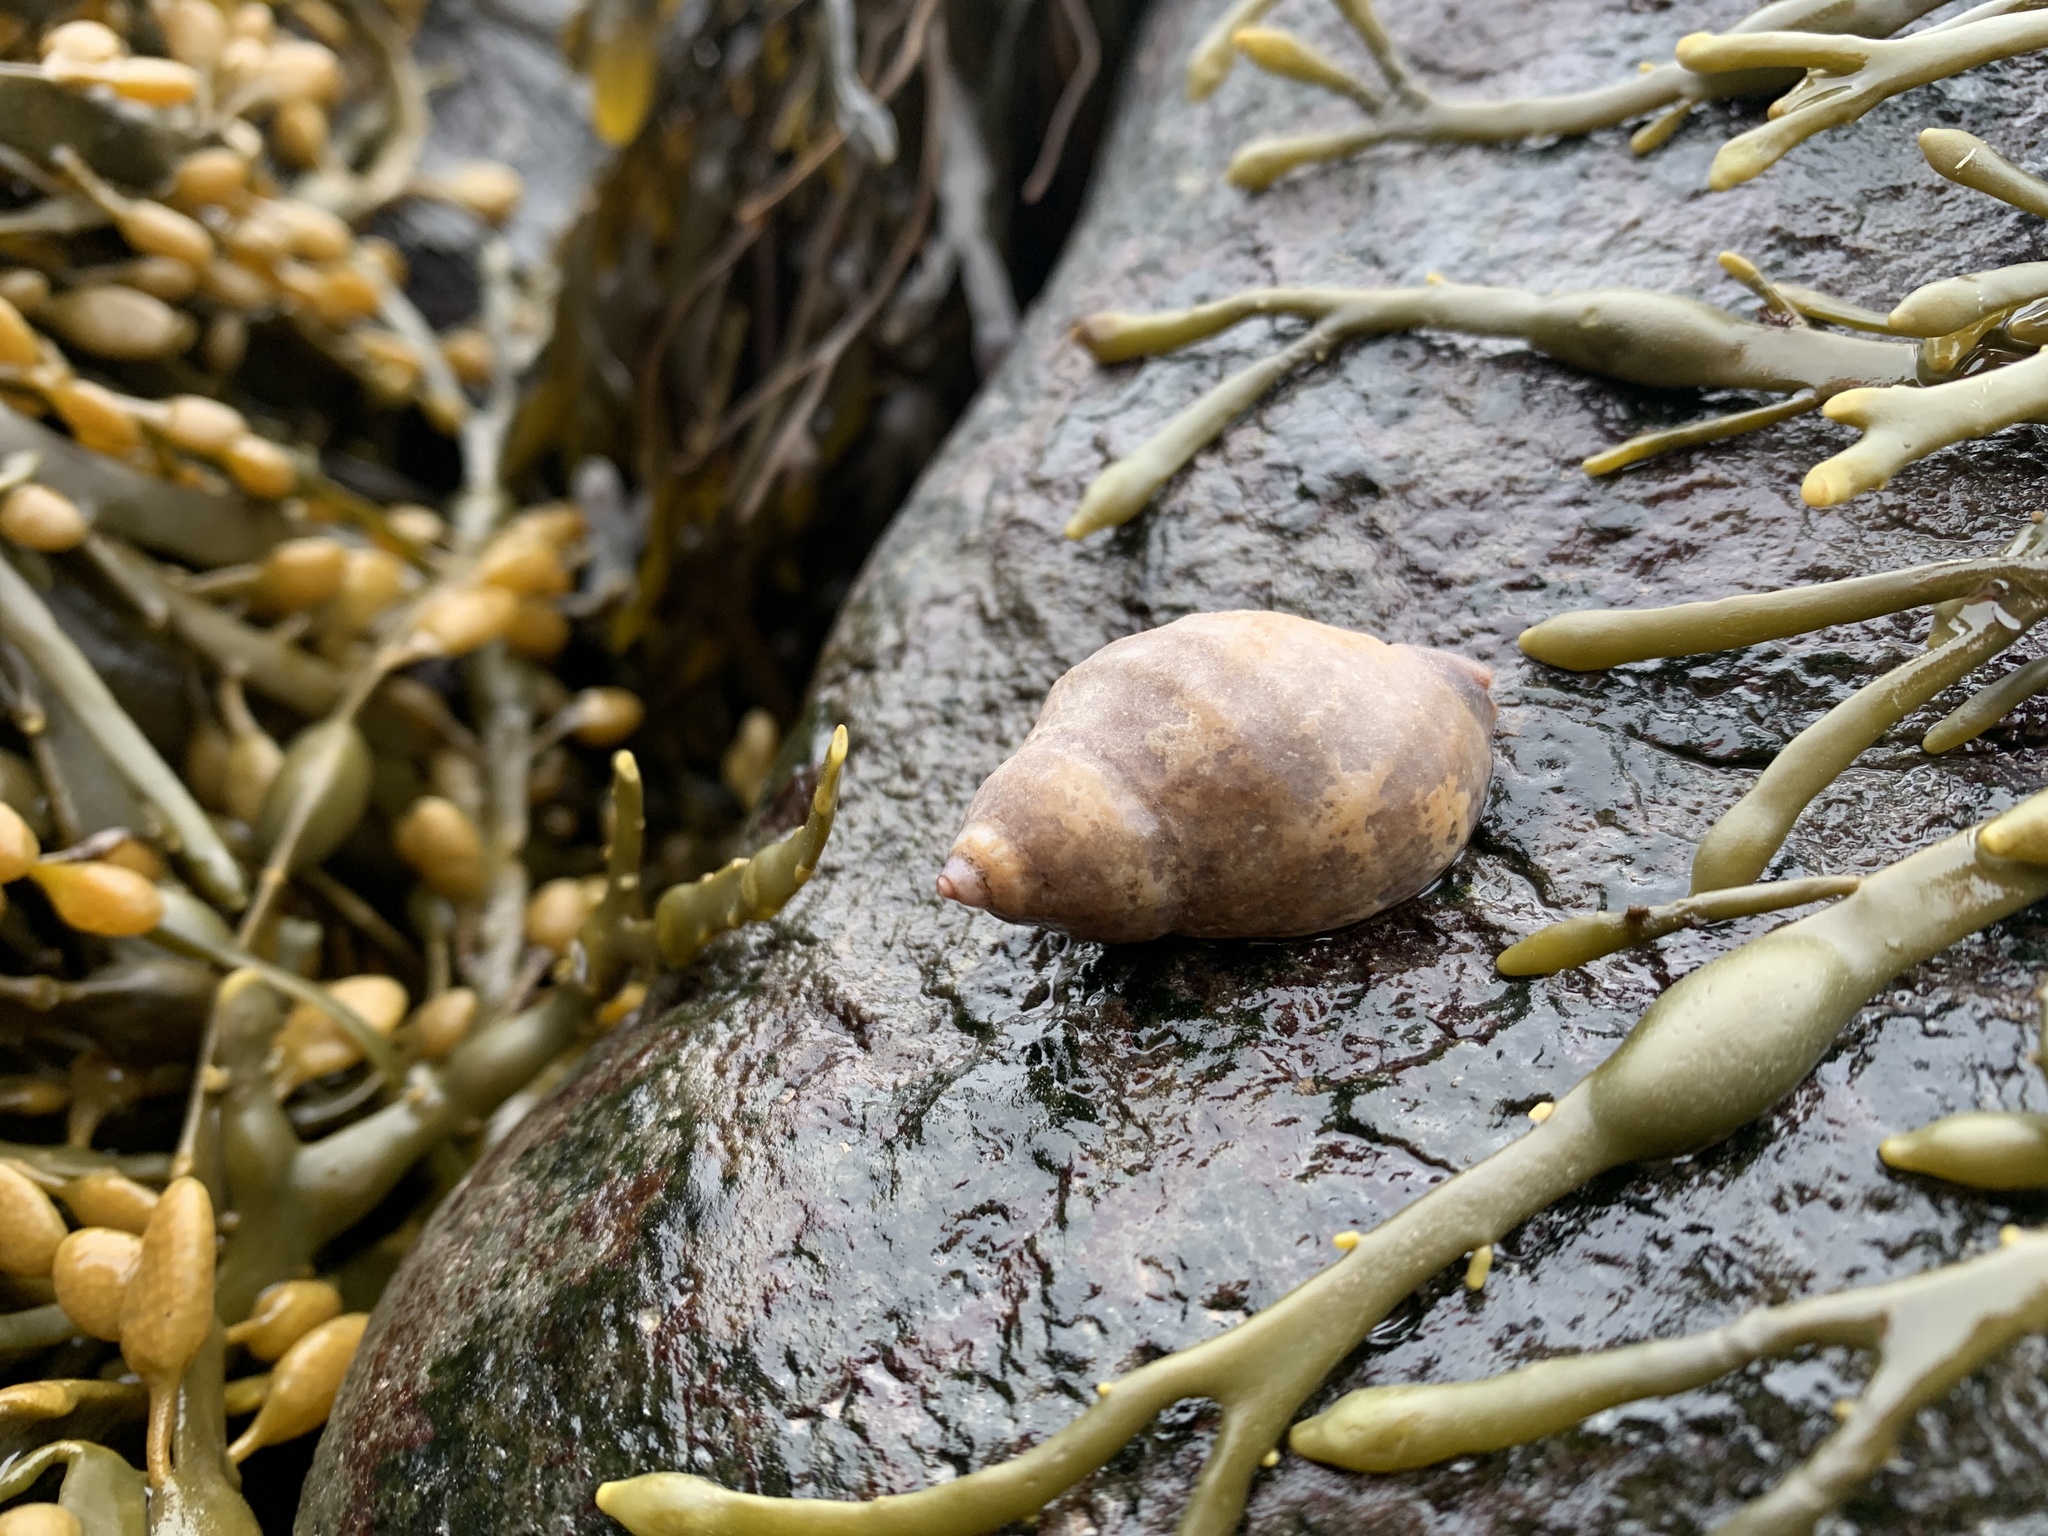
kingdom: Animalia
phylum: Mollusca
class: Gastropoda
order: Neogastropoda
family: Muricidae
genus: Nucella
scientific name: Nucella lapillus
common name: Dog whelk
